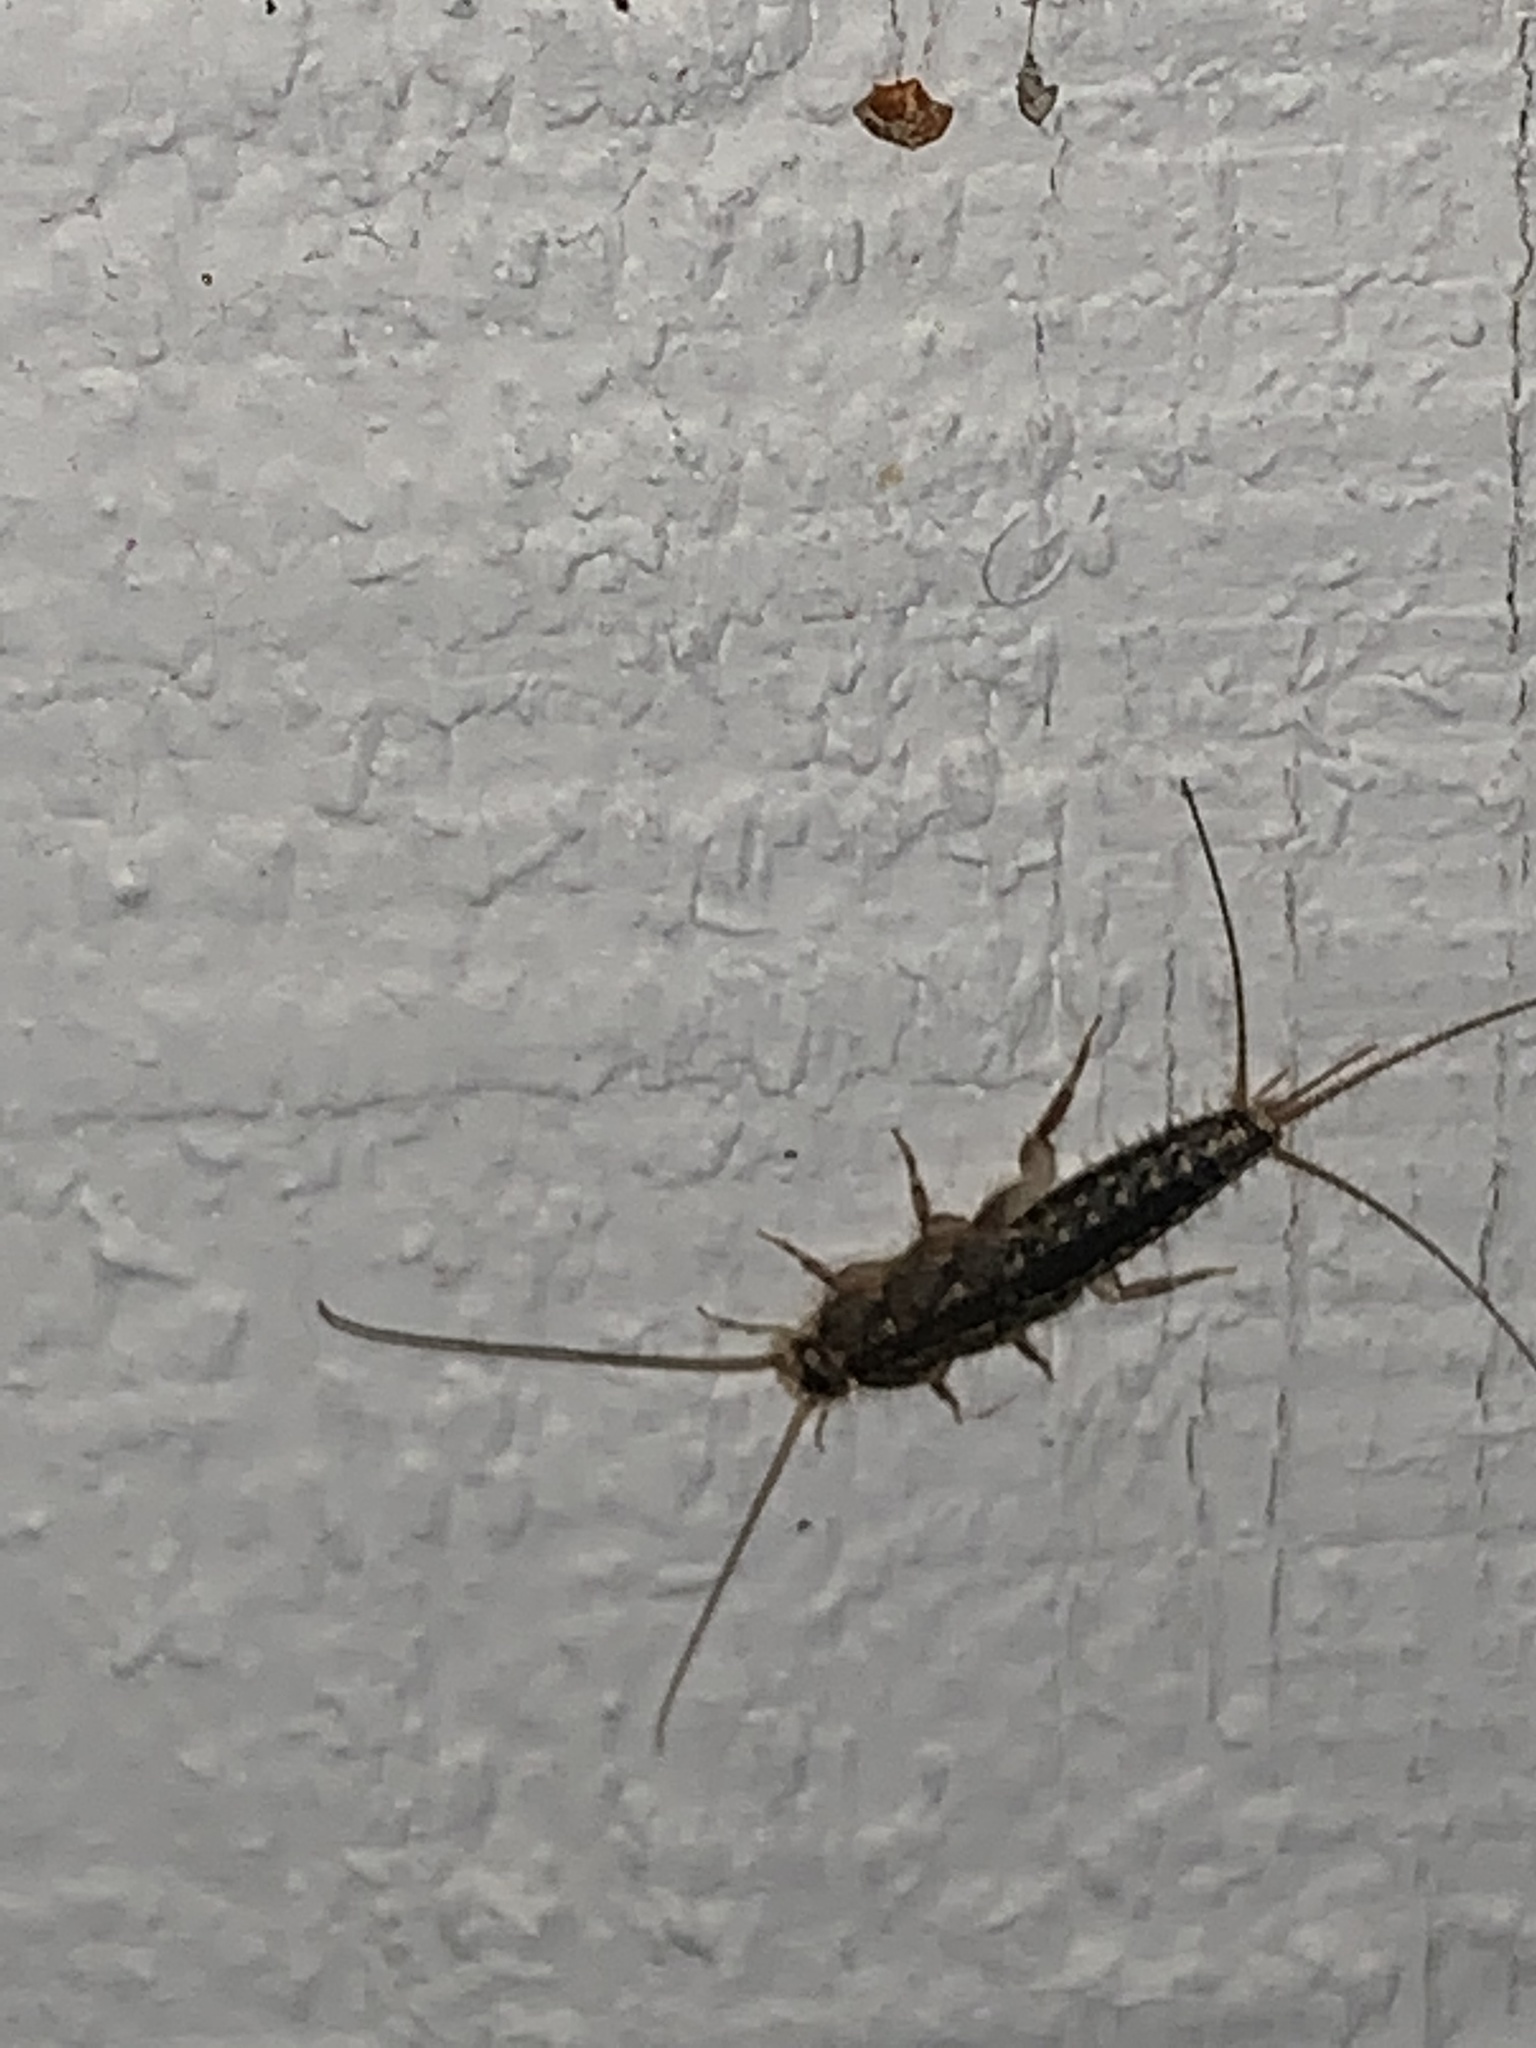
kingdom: Animalia
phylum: Arthropoda
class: Insecta
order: Zygentoma
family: Lepismatidae
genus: Ctenolepisma
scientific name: Ctenolepisma lineata
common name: Four-lined silverfish
